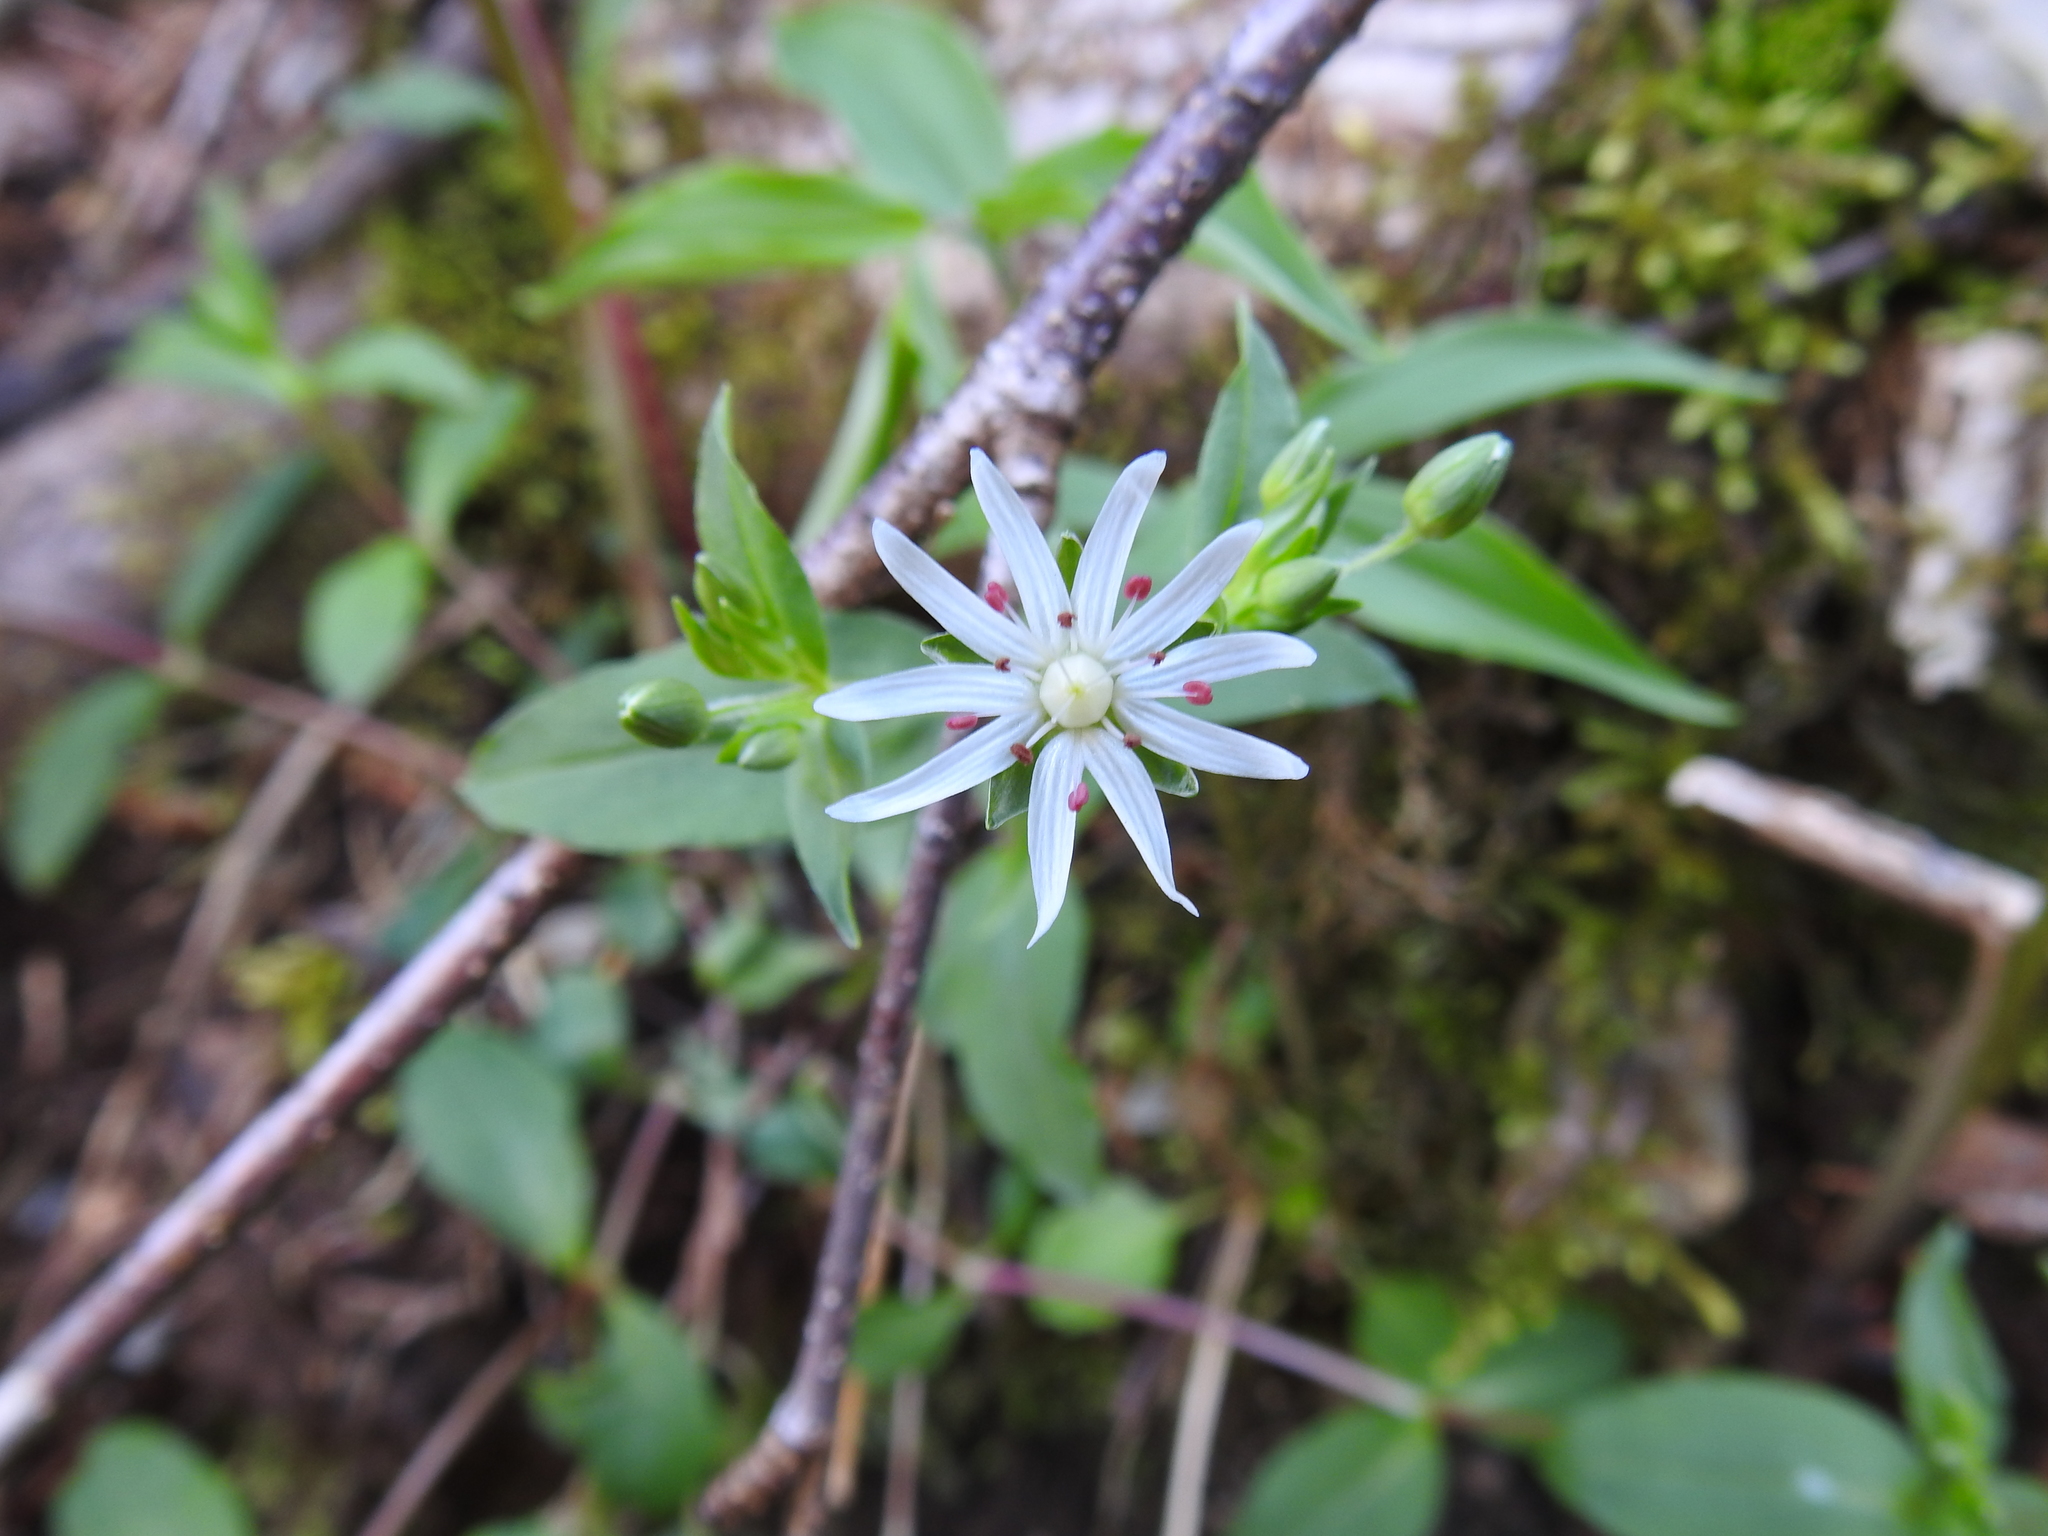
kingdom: Plantae
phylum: Tracheophyta
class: Magnoliopsida
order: Caryophyllales
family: Caryophyllaceae
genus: Stellaria
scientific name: Stellaria pubera
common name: Star chickweed
